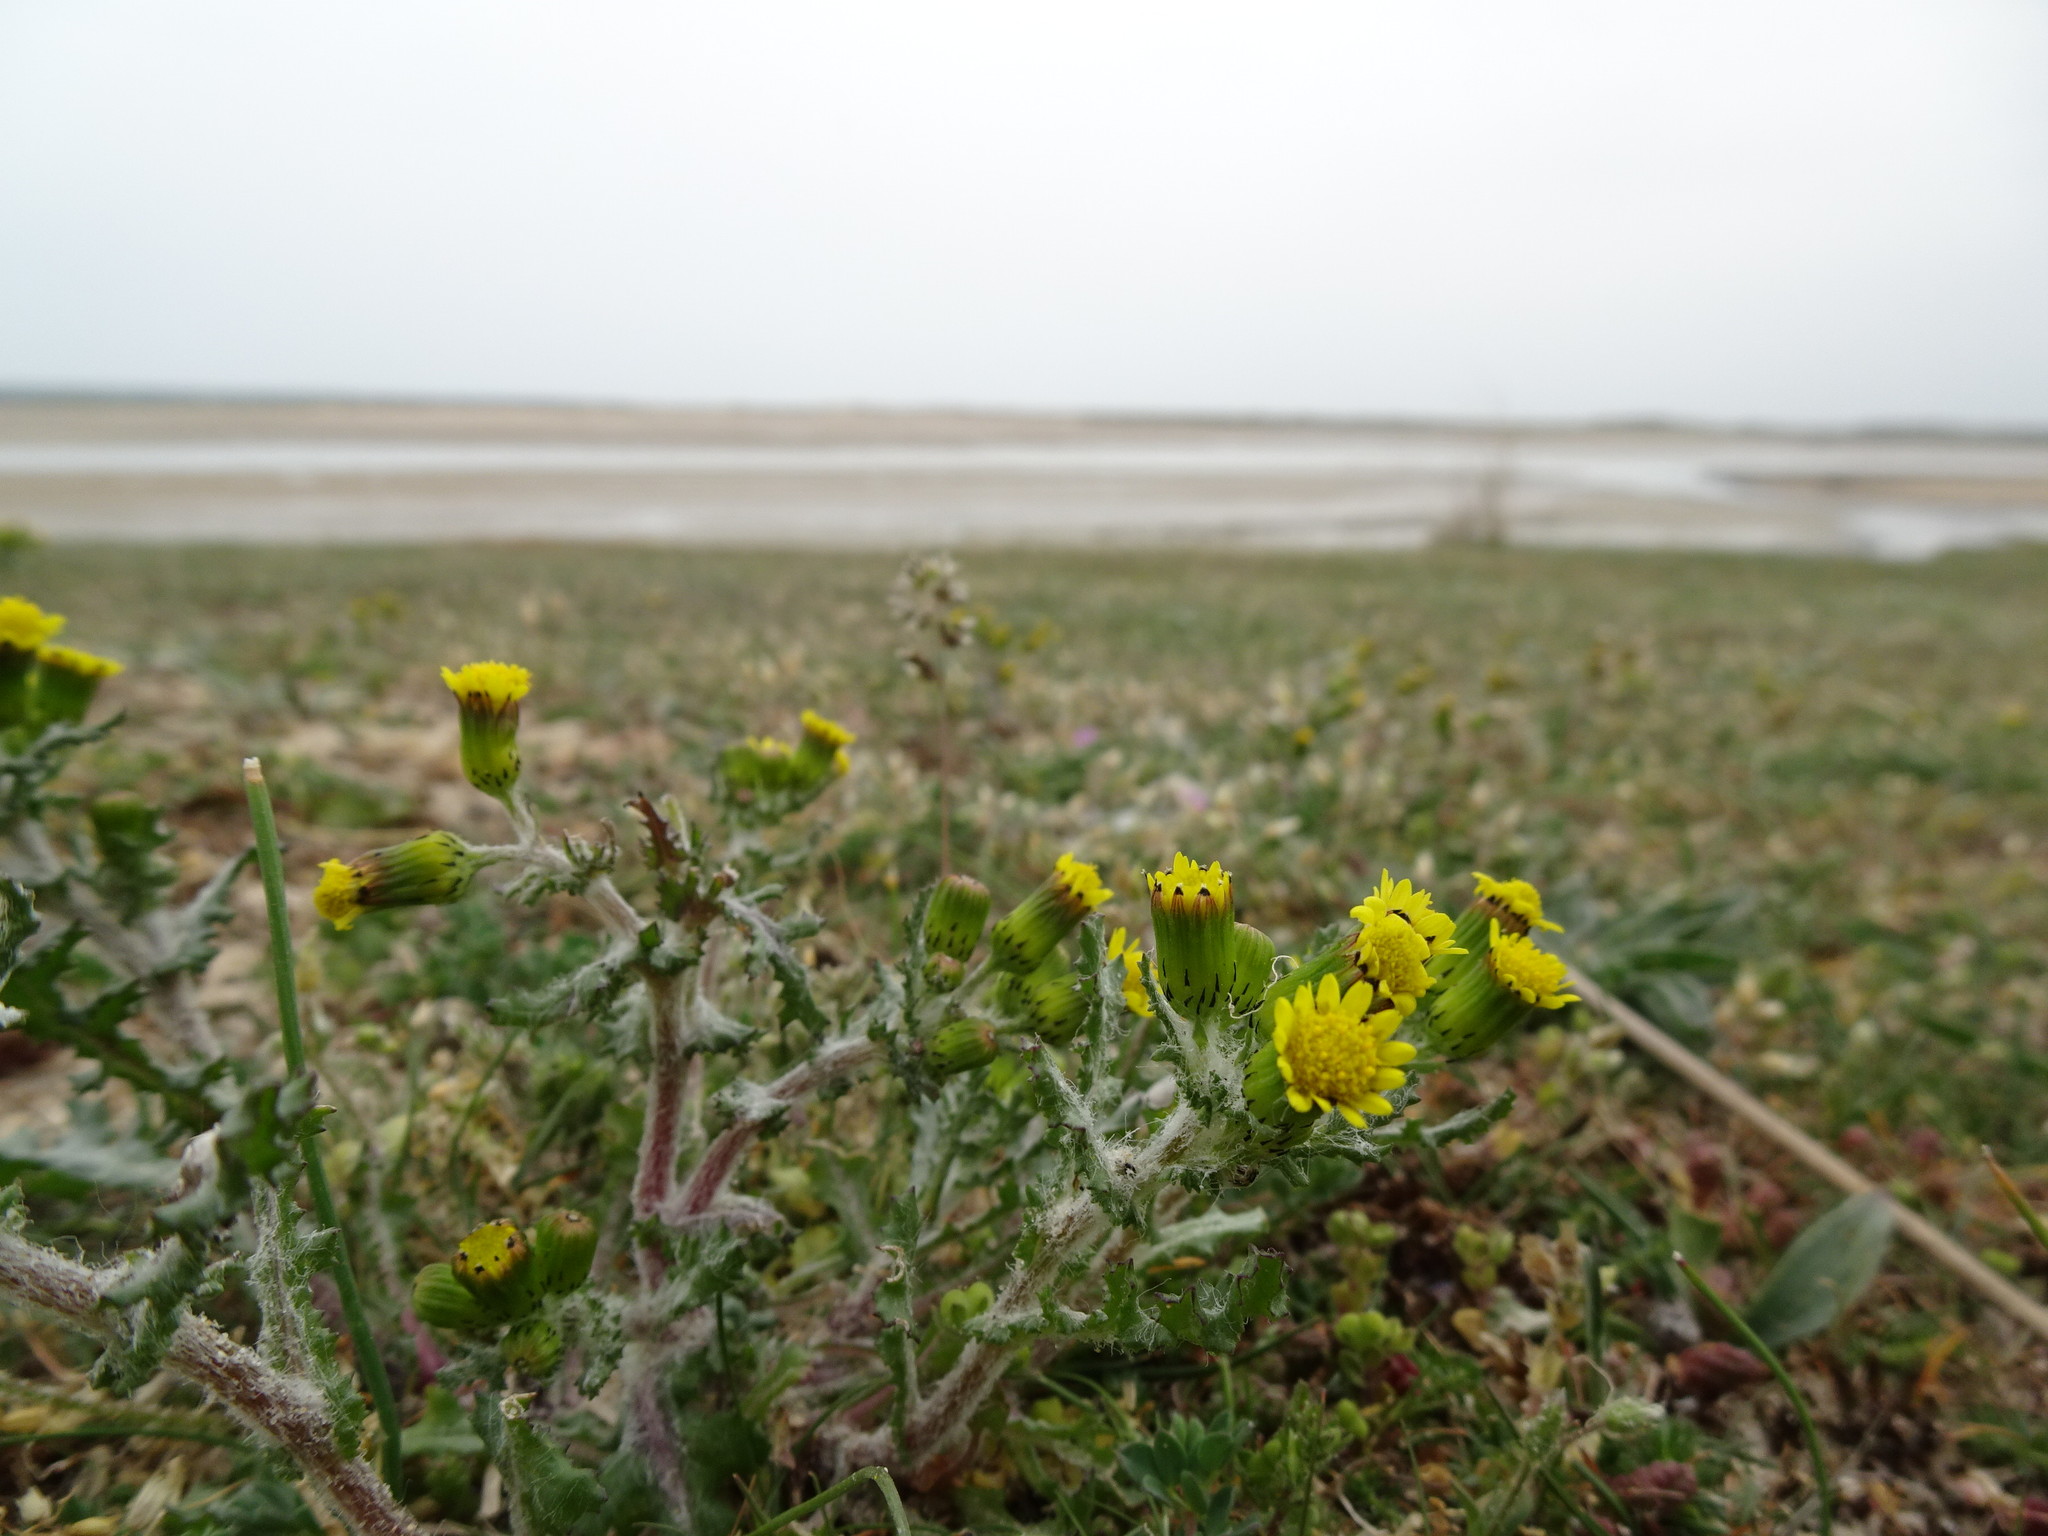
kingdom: Plantae
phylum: Tracheophyta
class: Magnoliopsida
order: Asterales
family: Asteraceae
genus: Senecio
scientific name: Senecio vulgaris
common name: Old-man-in-the-spring
